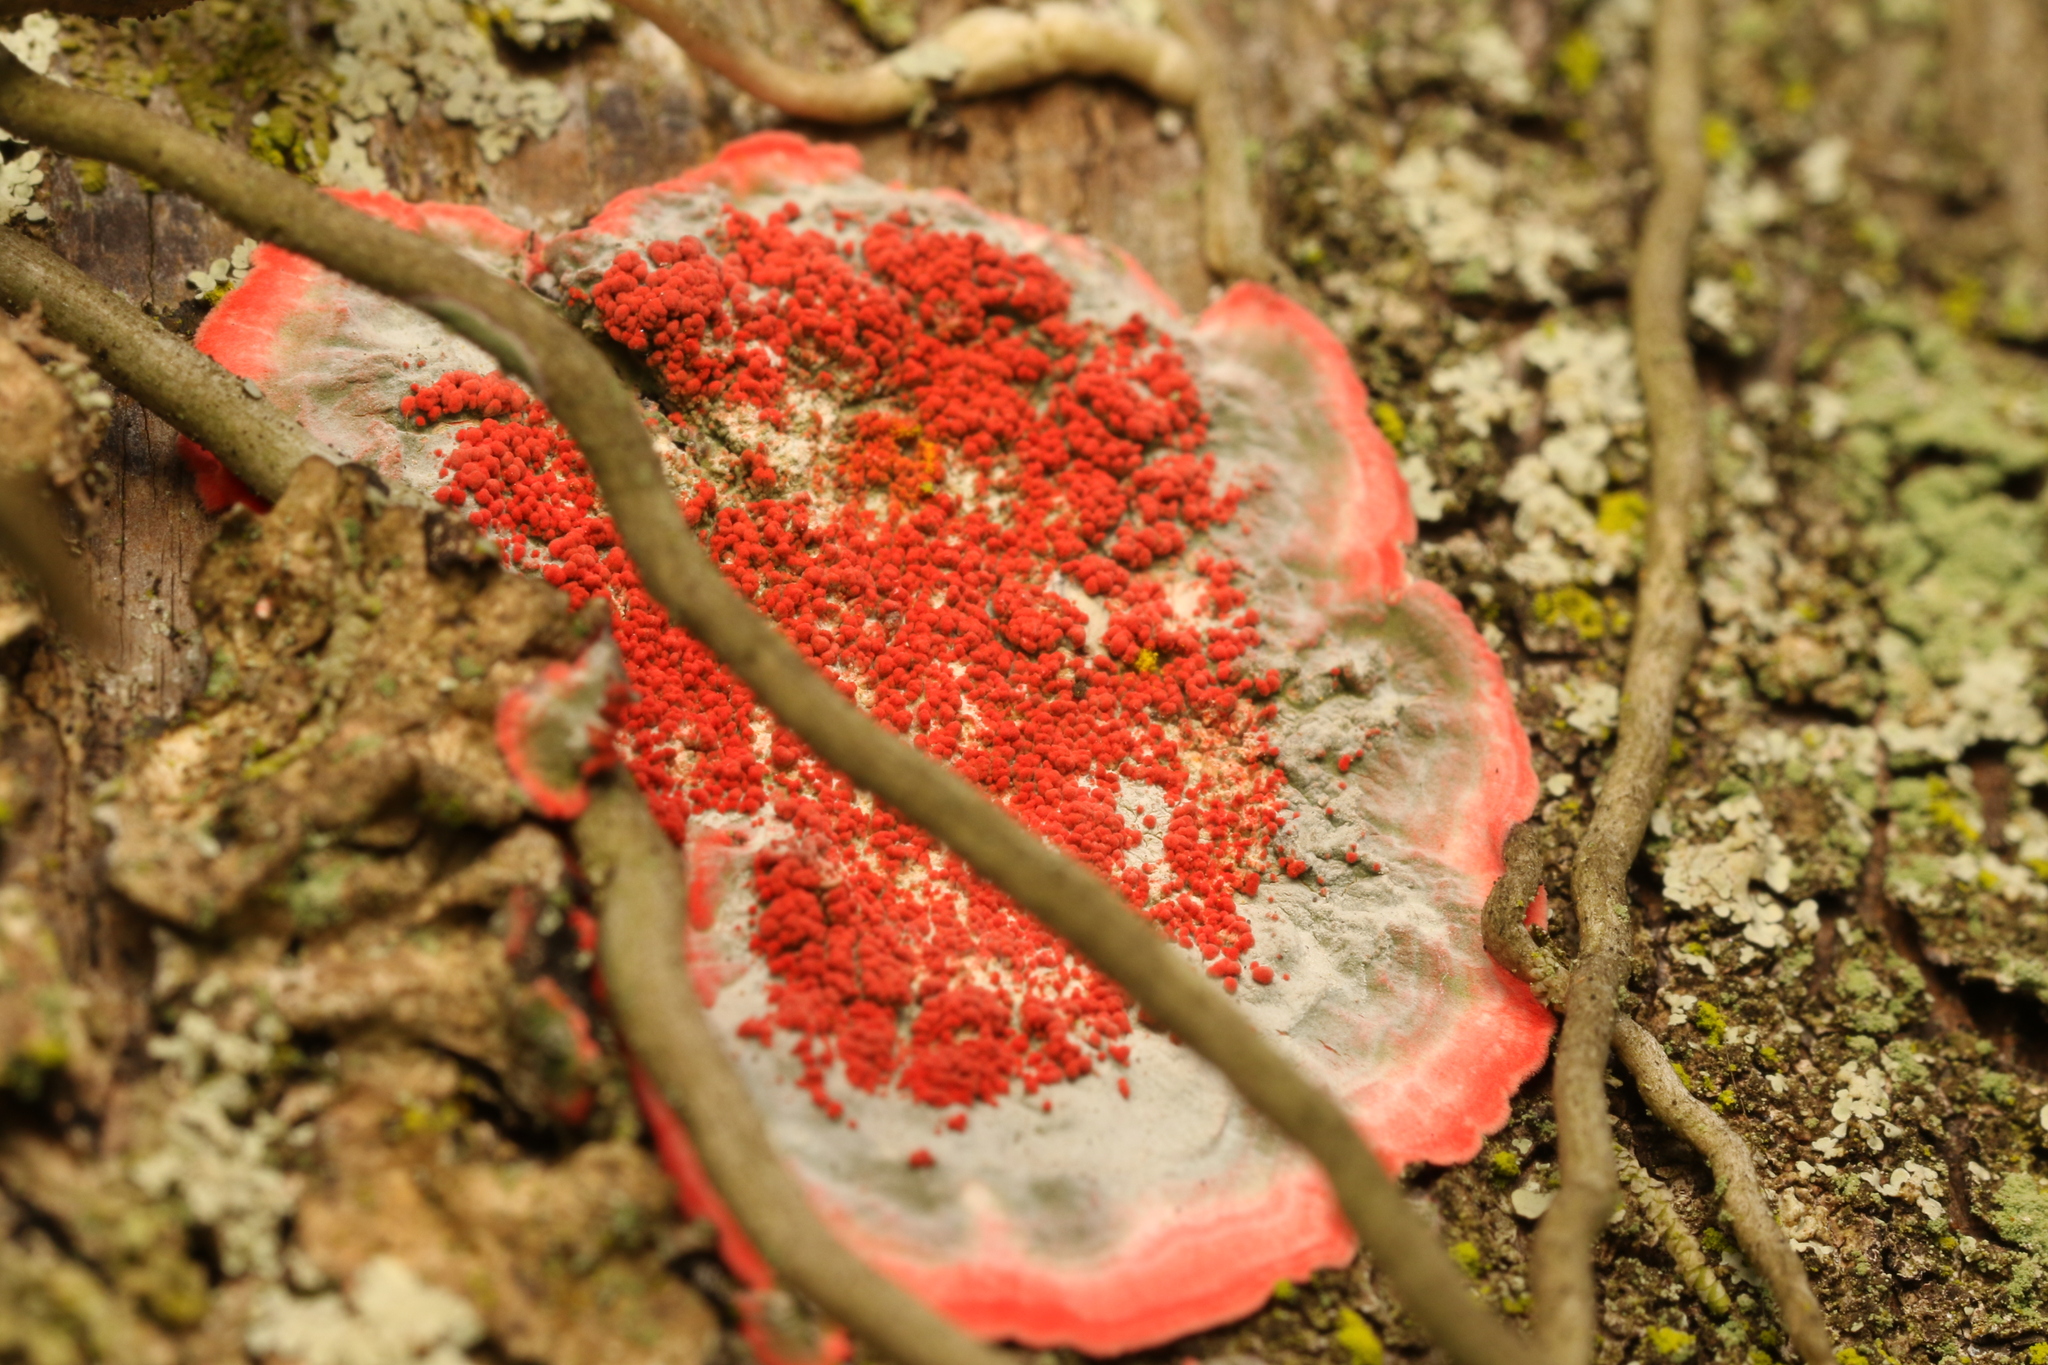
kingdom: Fungi
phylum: Ascomycota
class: Arthoniomycetes
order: Arthoniales
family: Arthoniaceae
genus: Herpothallon
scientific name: Herpothallon rubrocinctum
